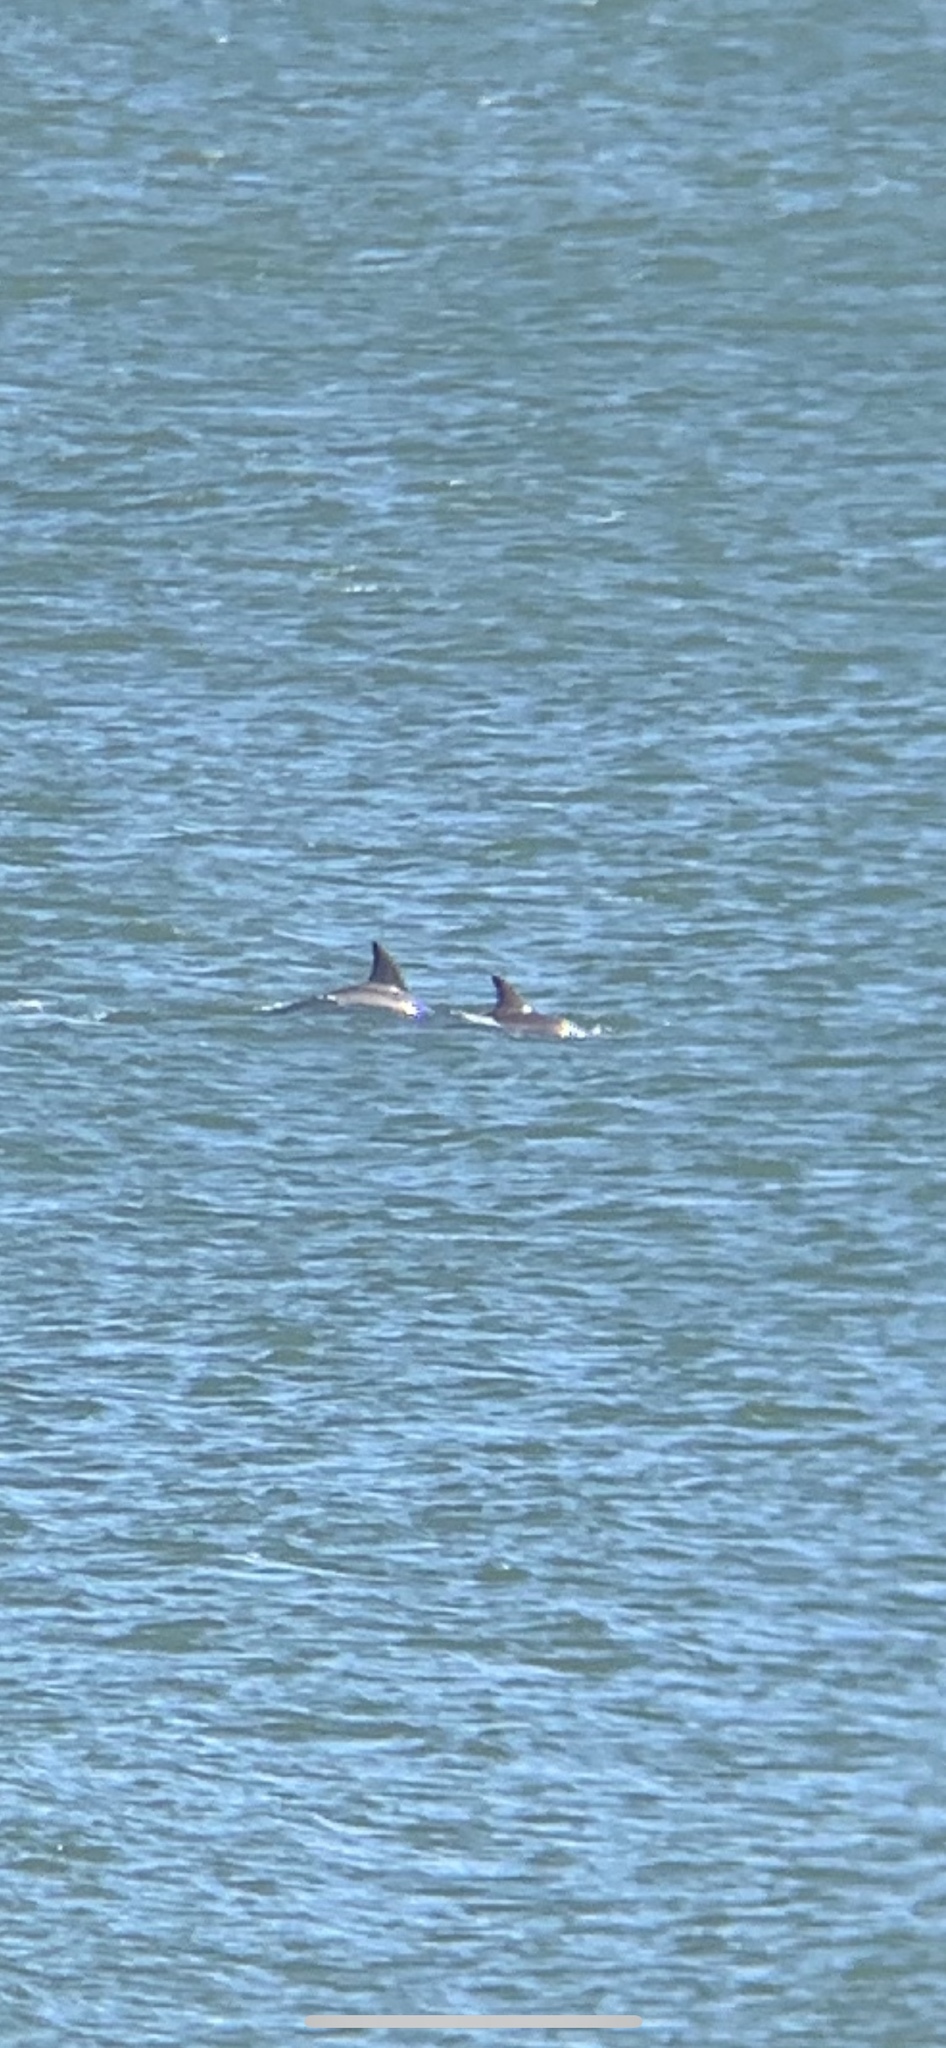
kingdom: Animalia
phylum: Chordata
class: Mammalia
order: Cetacea
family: Delphinidae
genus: Tursiops
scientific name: Tursiops truncatus
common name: Bottlenose dolphin
